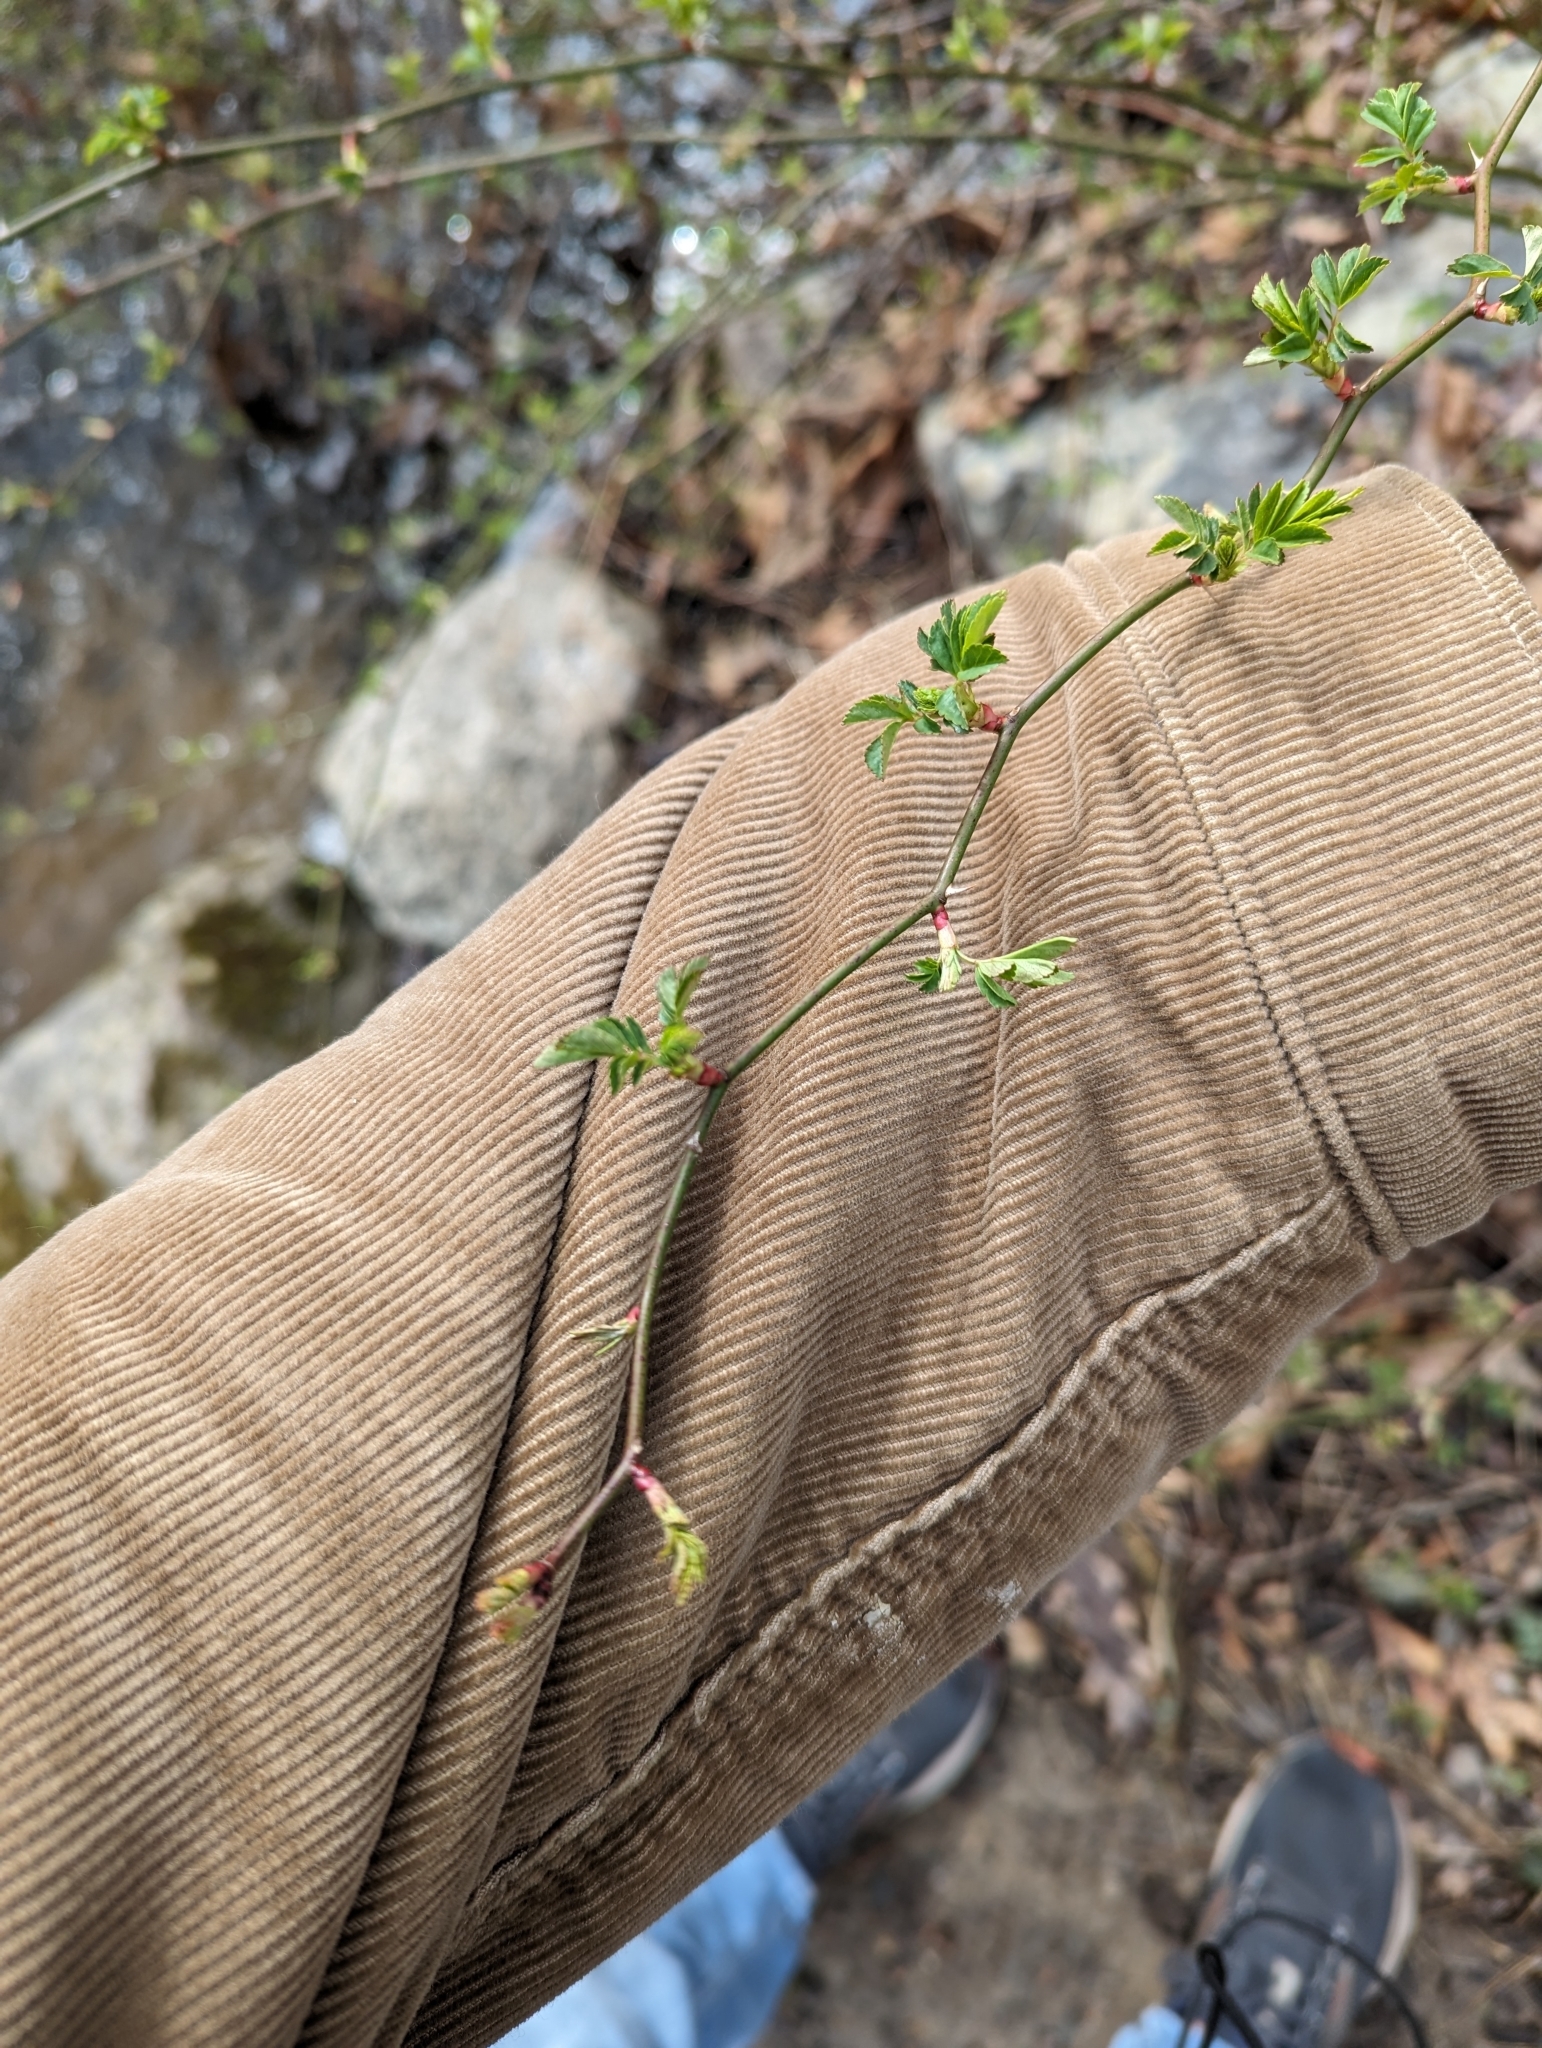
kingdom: Plantae
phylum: Tracheophyta
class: Magnoliopsida
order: Rosales
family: Rosaceae
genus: Rosa
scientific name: Rosa multiflora
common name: Multiflora rose
